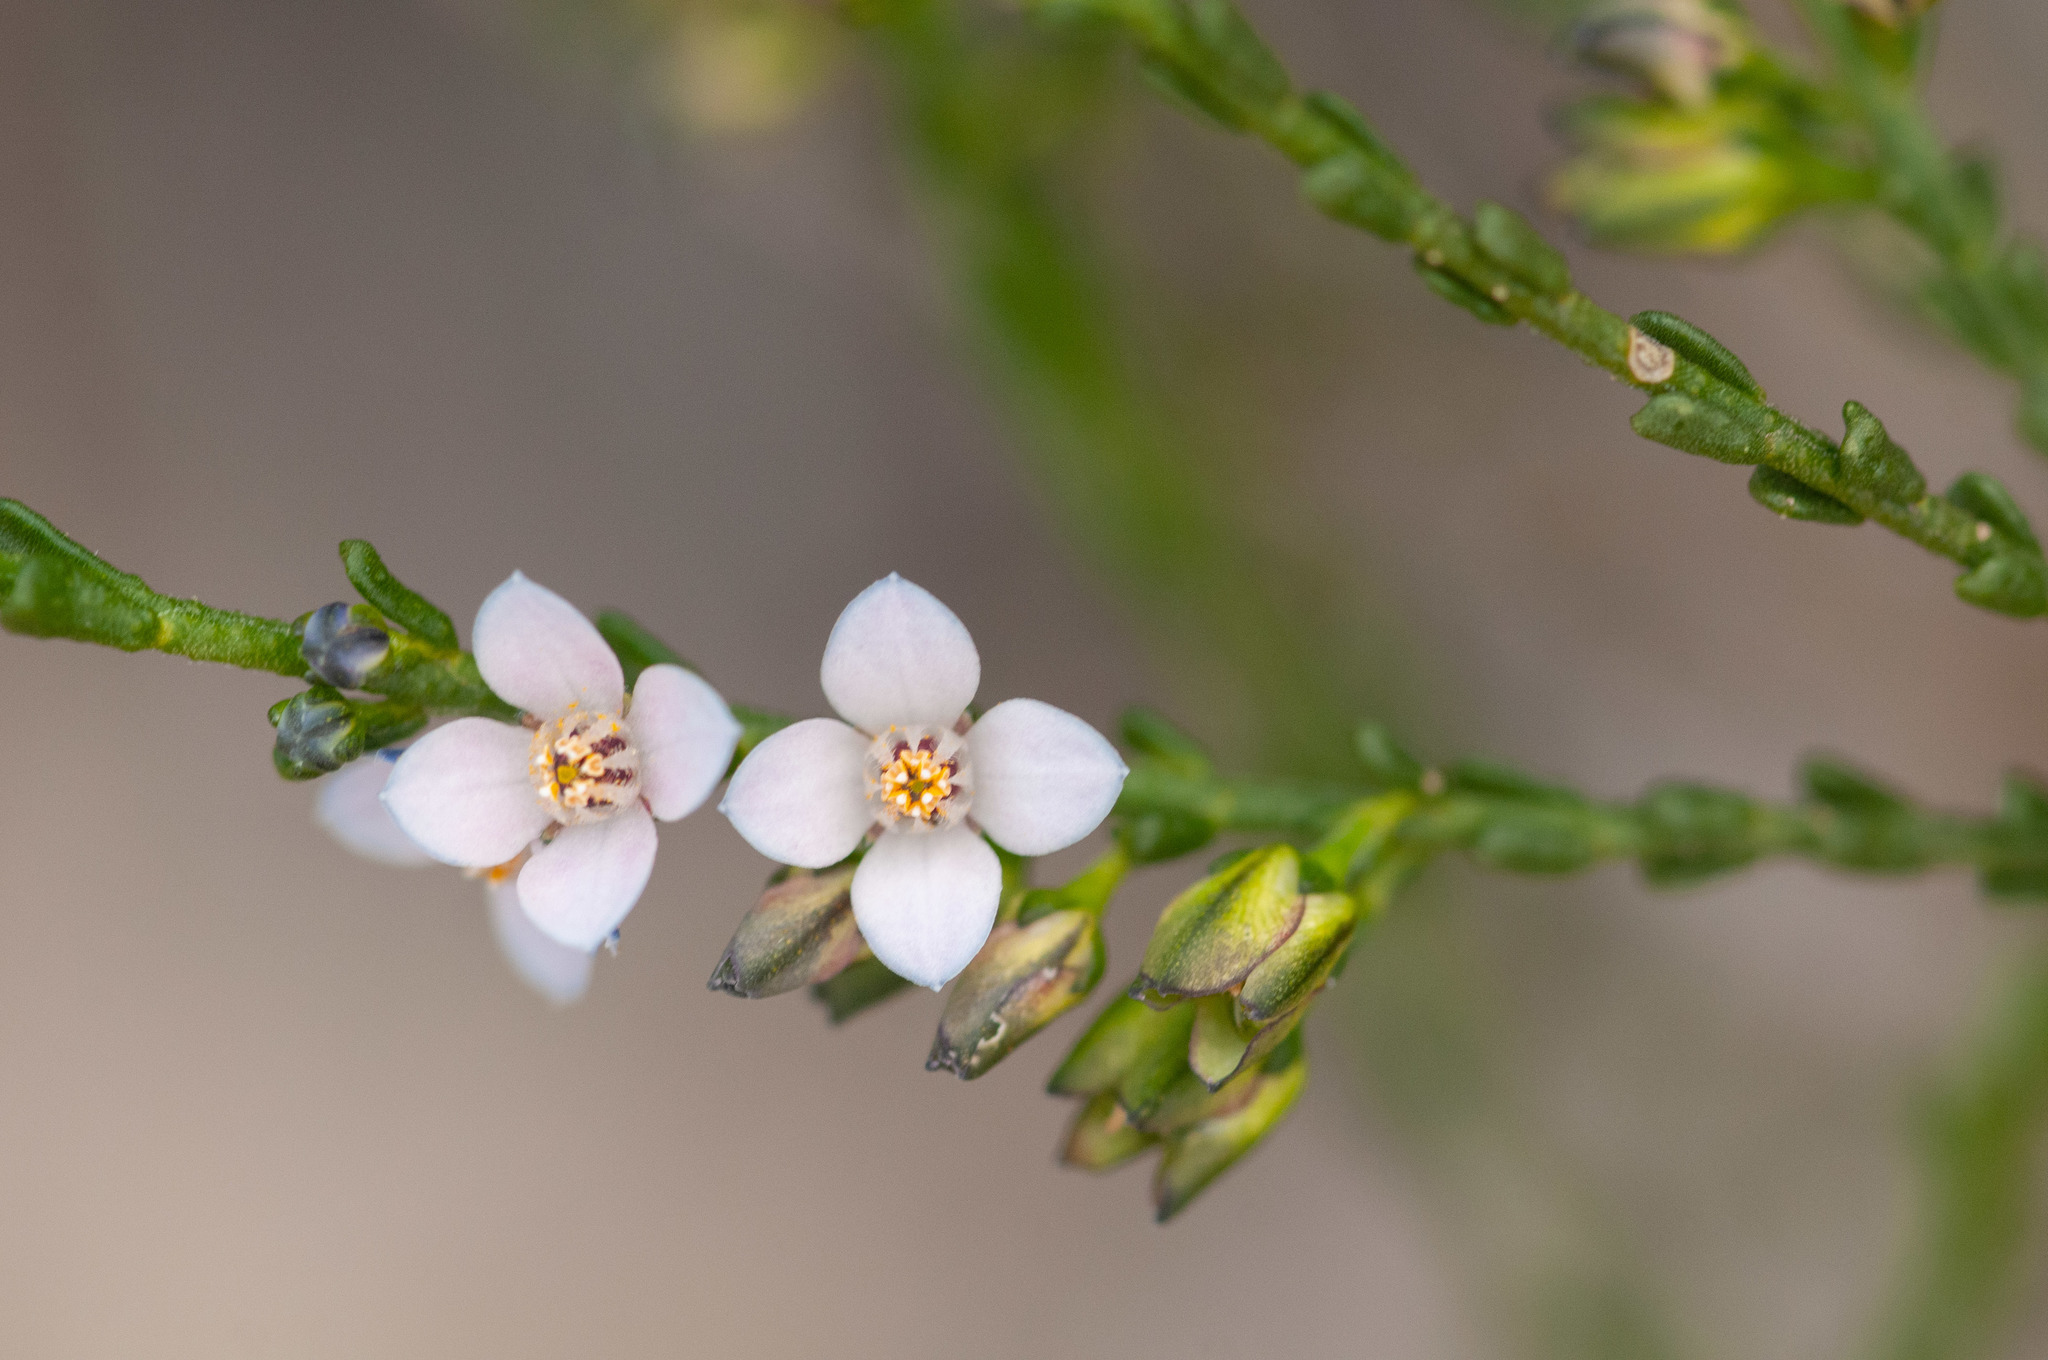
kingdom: Plantae
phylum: Tracheophyta
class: Magnoliopsida
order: Sapindales
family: Rutaceae
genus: Cyanothamnus
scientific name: Cyanothamnus coerulescens
